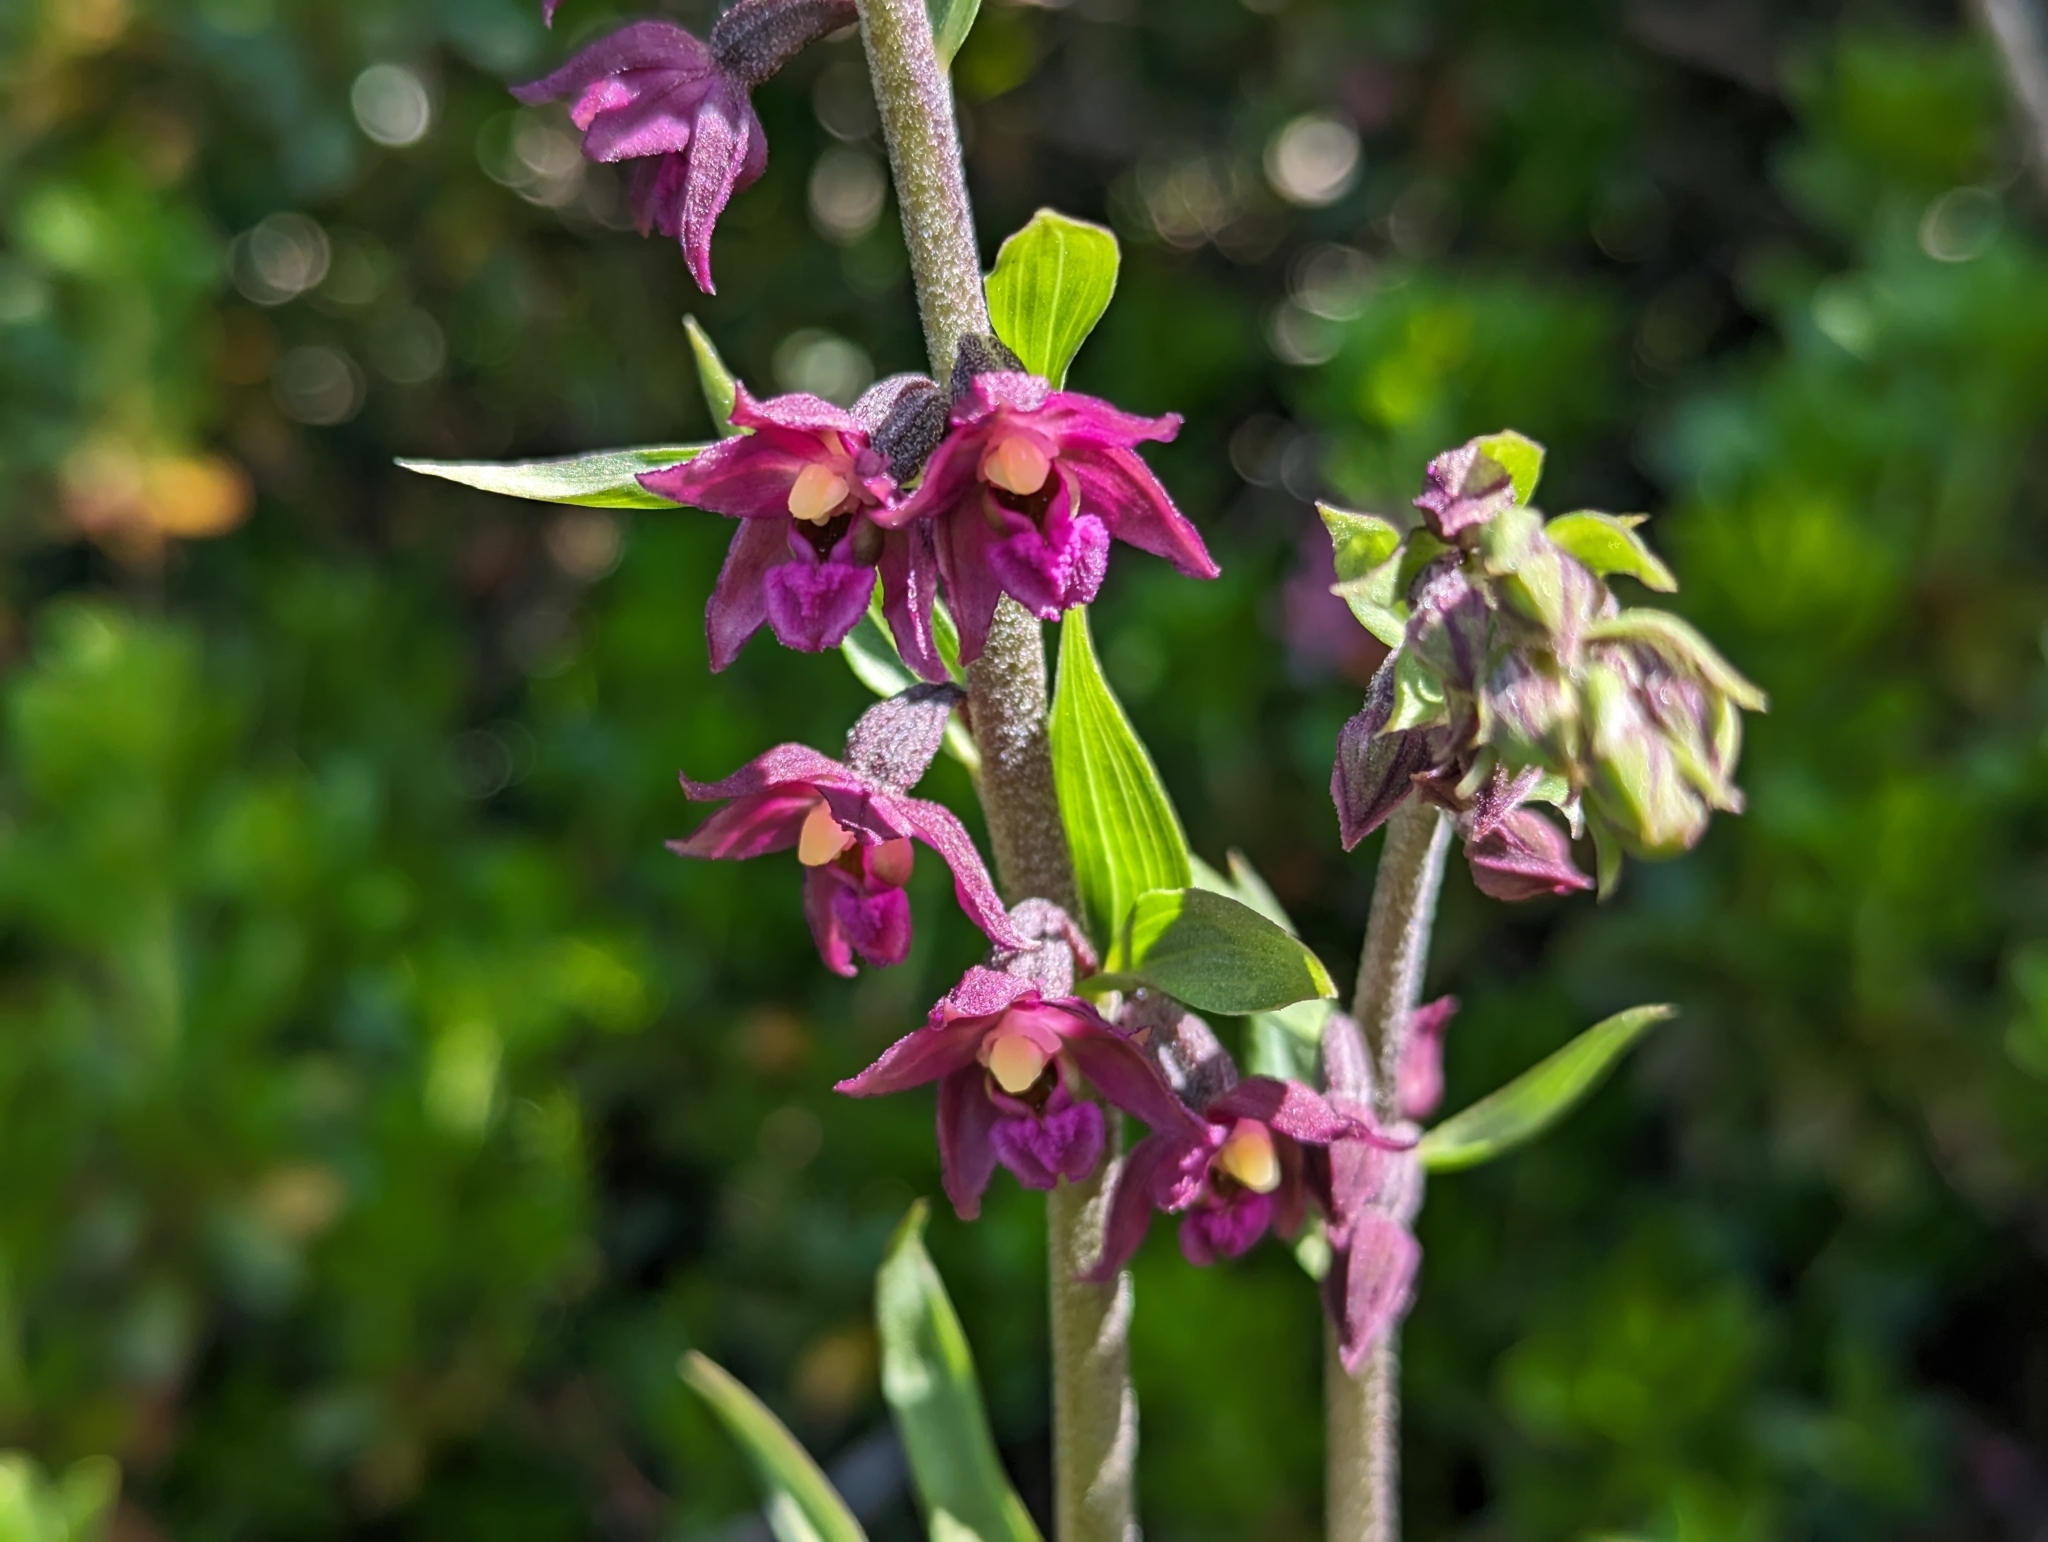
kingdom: Plantae
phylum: Tracheophyta
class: Liliopsida
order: Asparagales
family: Orchidaceae
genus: Epipactis
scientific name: Epipactis atrorubens
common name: Dark-red helleborine
